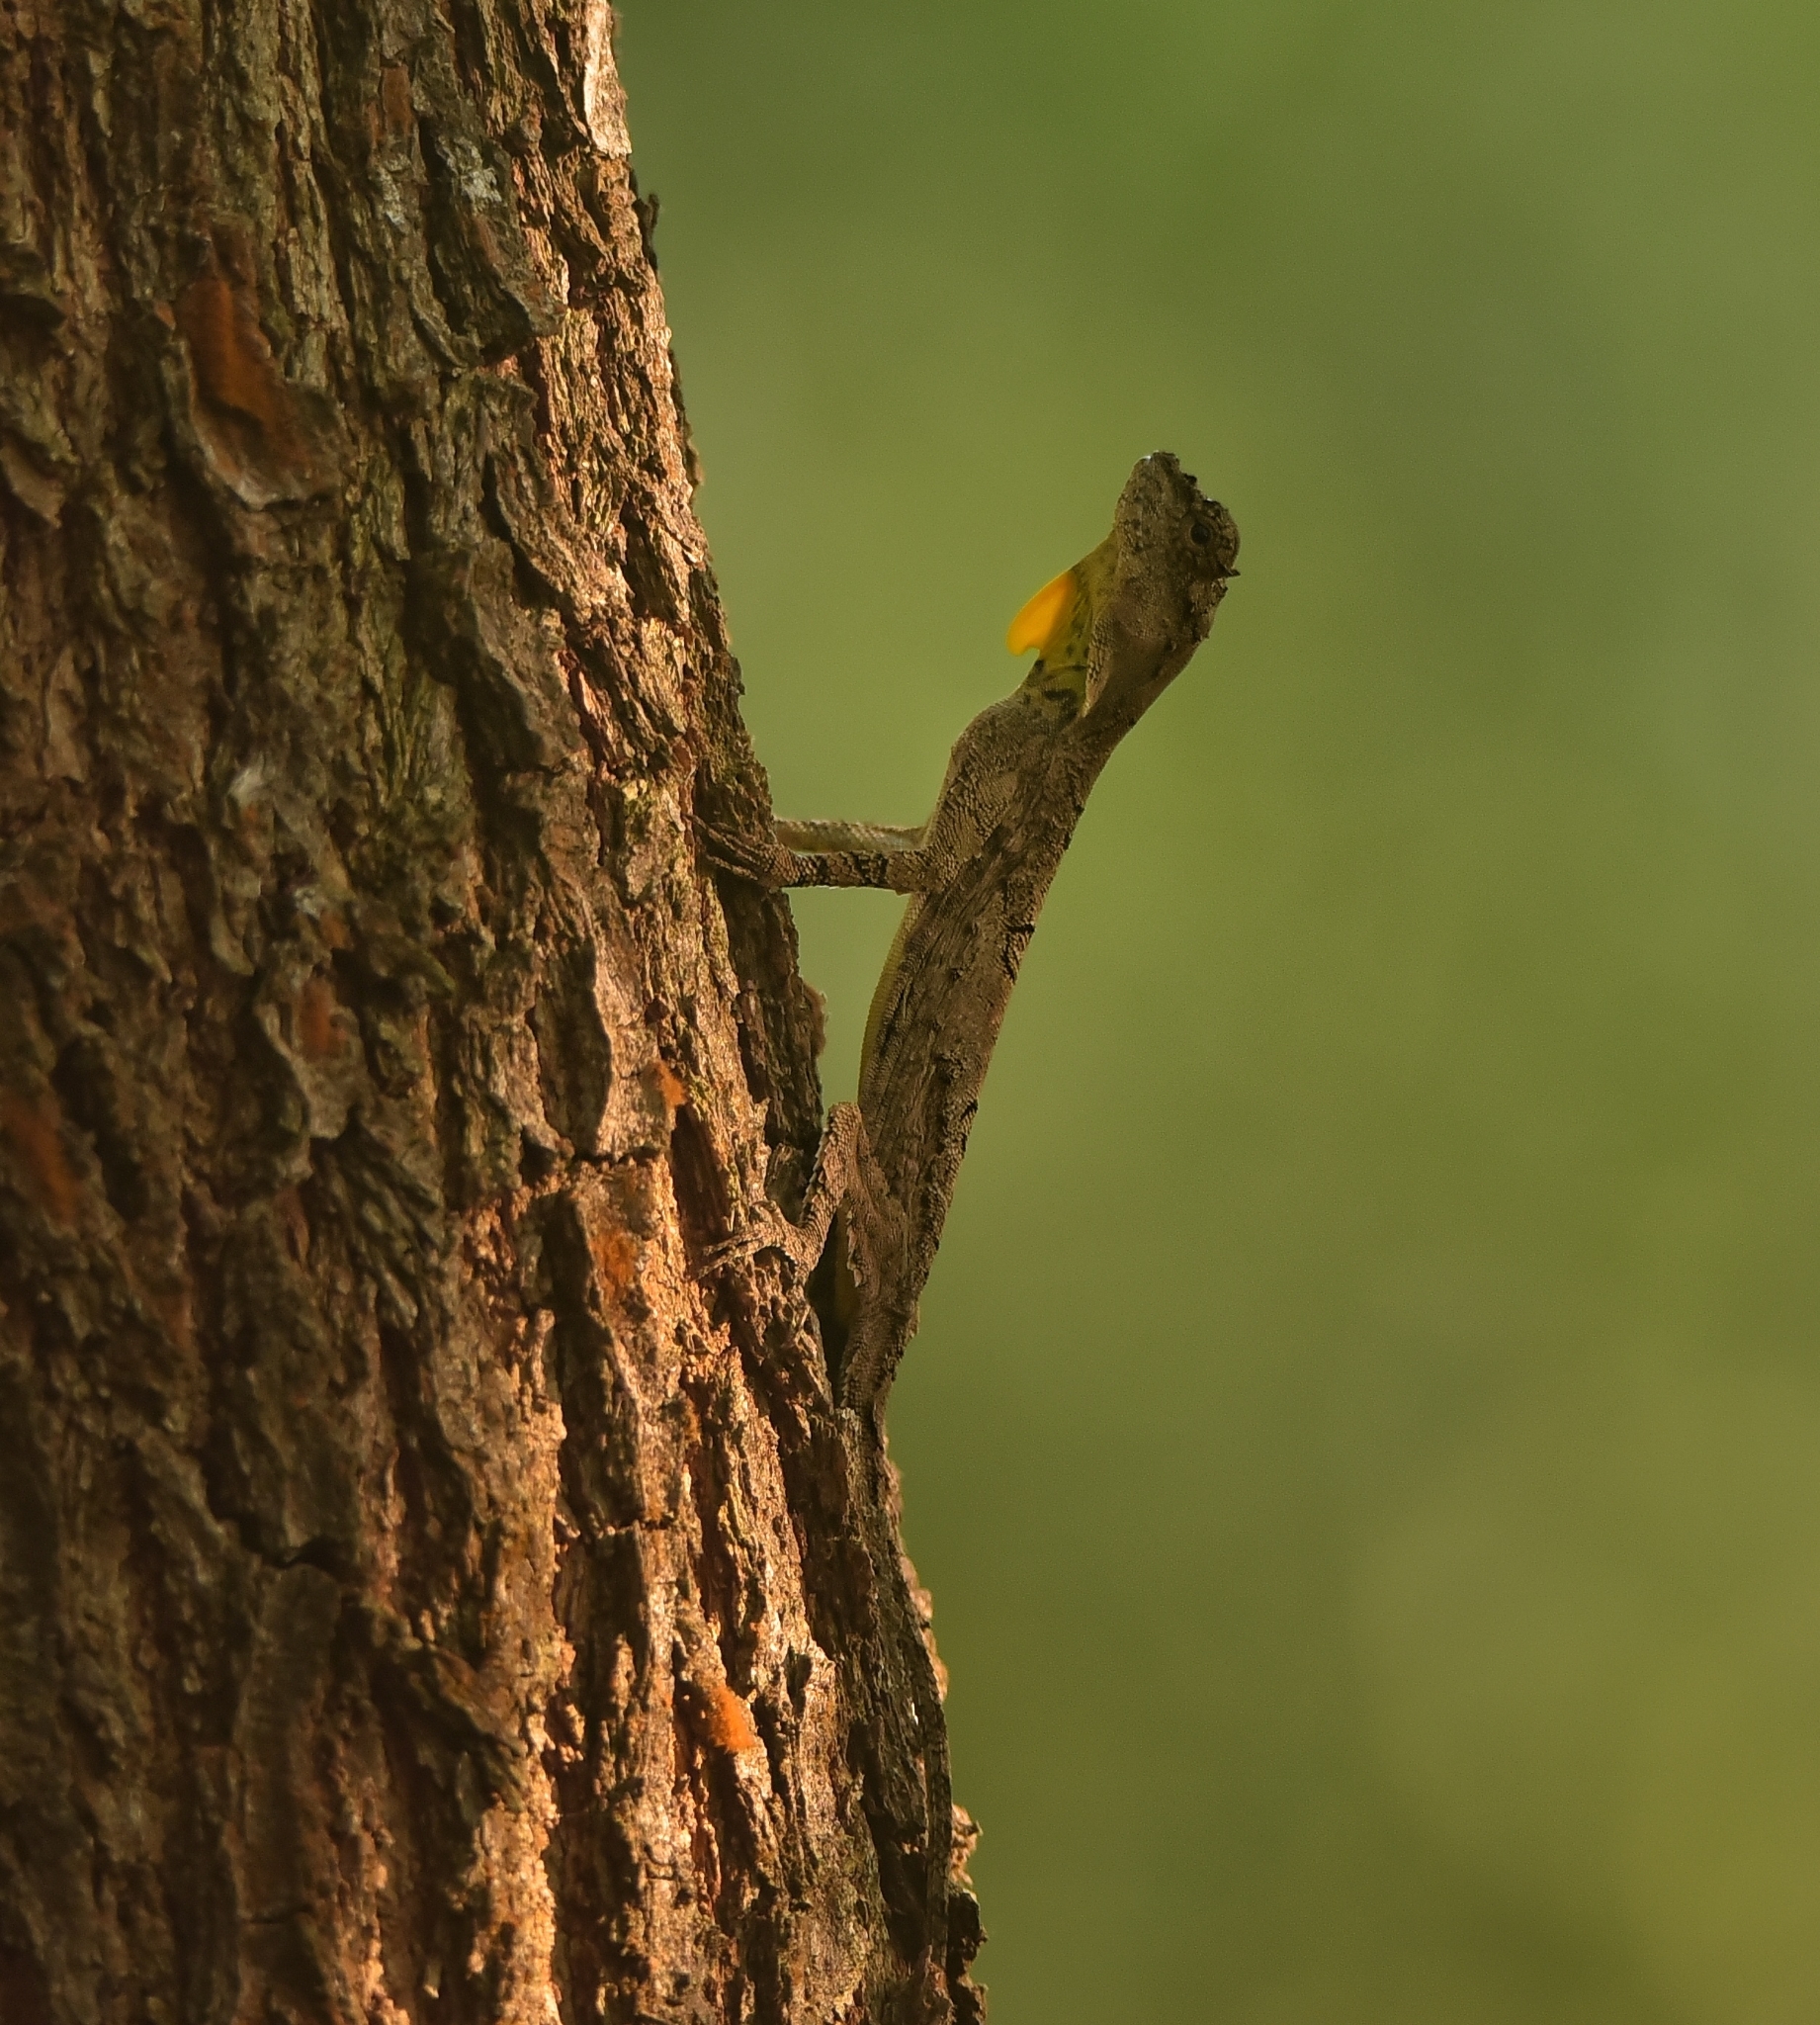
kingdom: Animalia
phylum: Chordata
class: Squamata
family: Agamidae
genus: Draco
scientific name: Draco dussumieri
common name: Southern flying lizard
